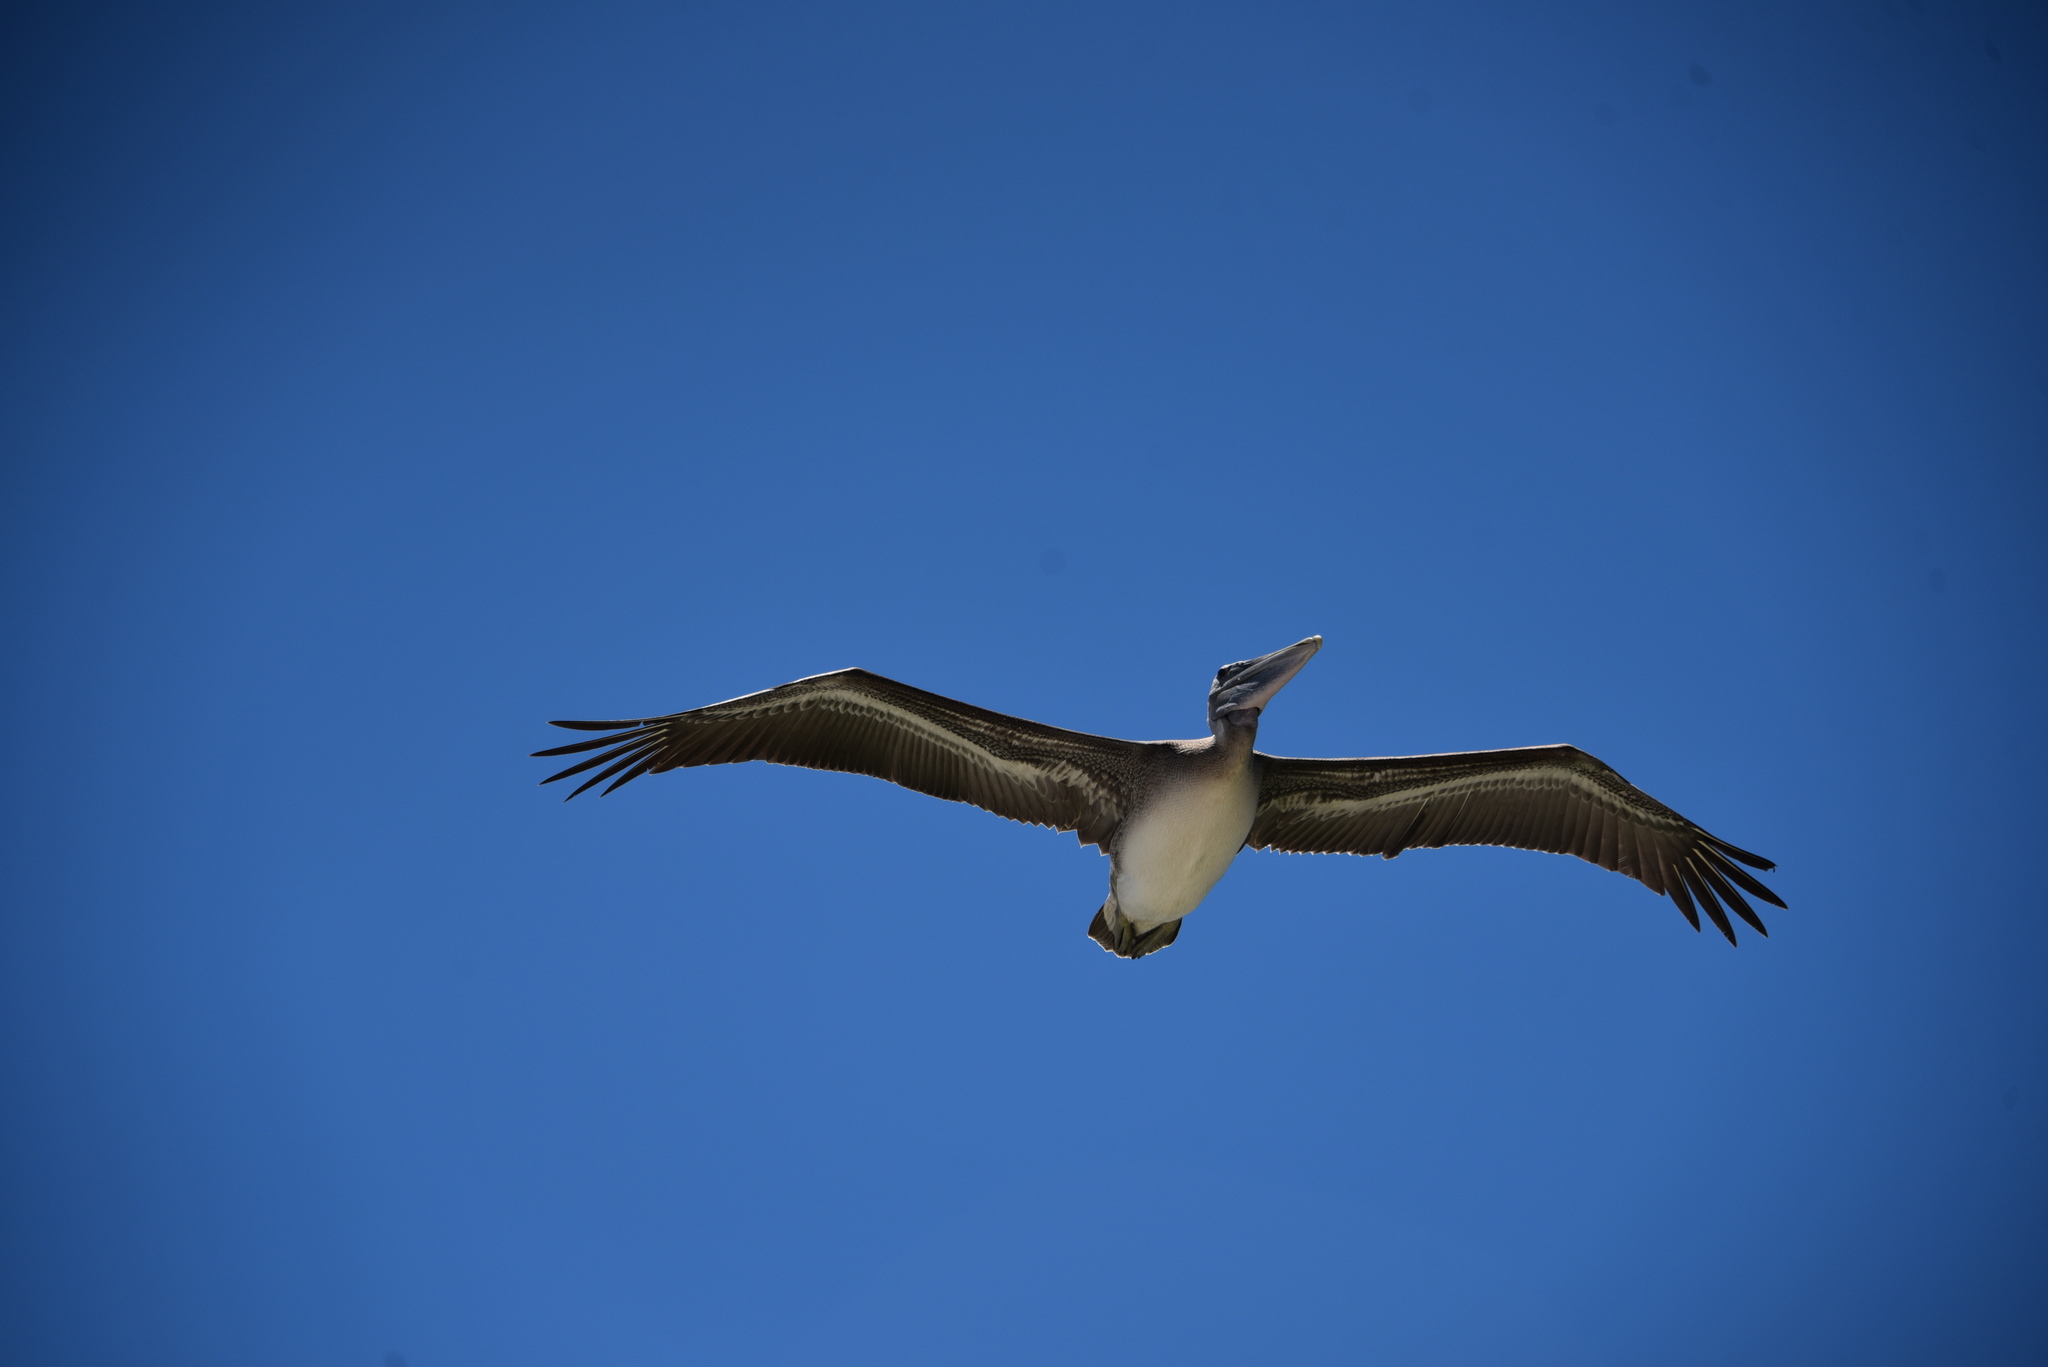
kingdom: Animalia
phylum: Chordata
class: Aves
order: Pelecaniformes
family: Pelecanidae
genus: Pelecanus
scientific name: Pelecanus occidentalis
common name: Brown pelican
